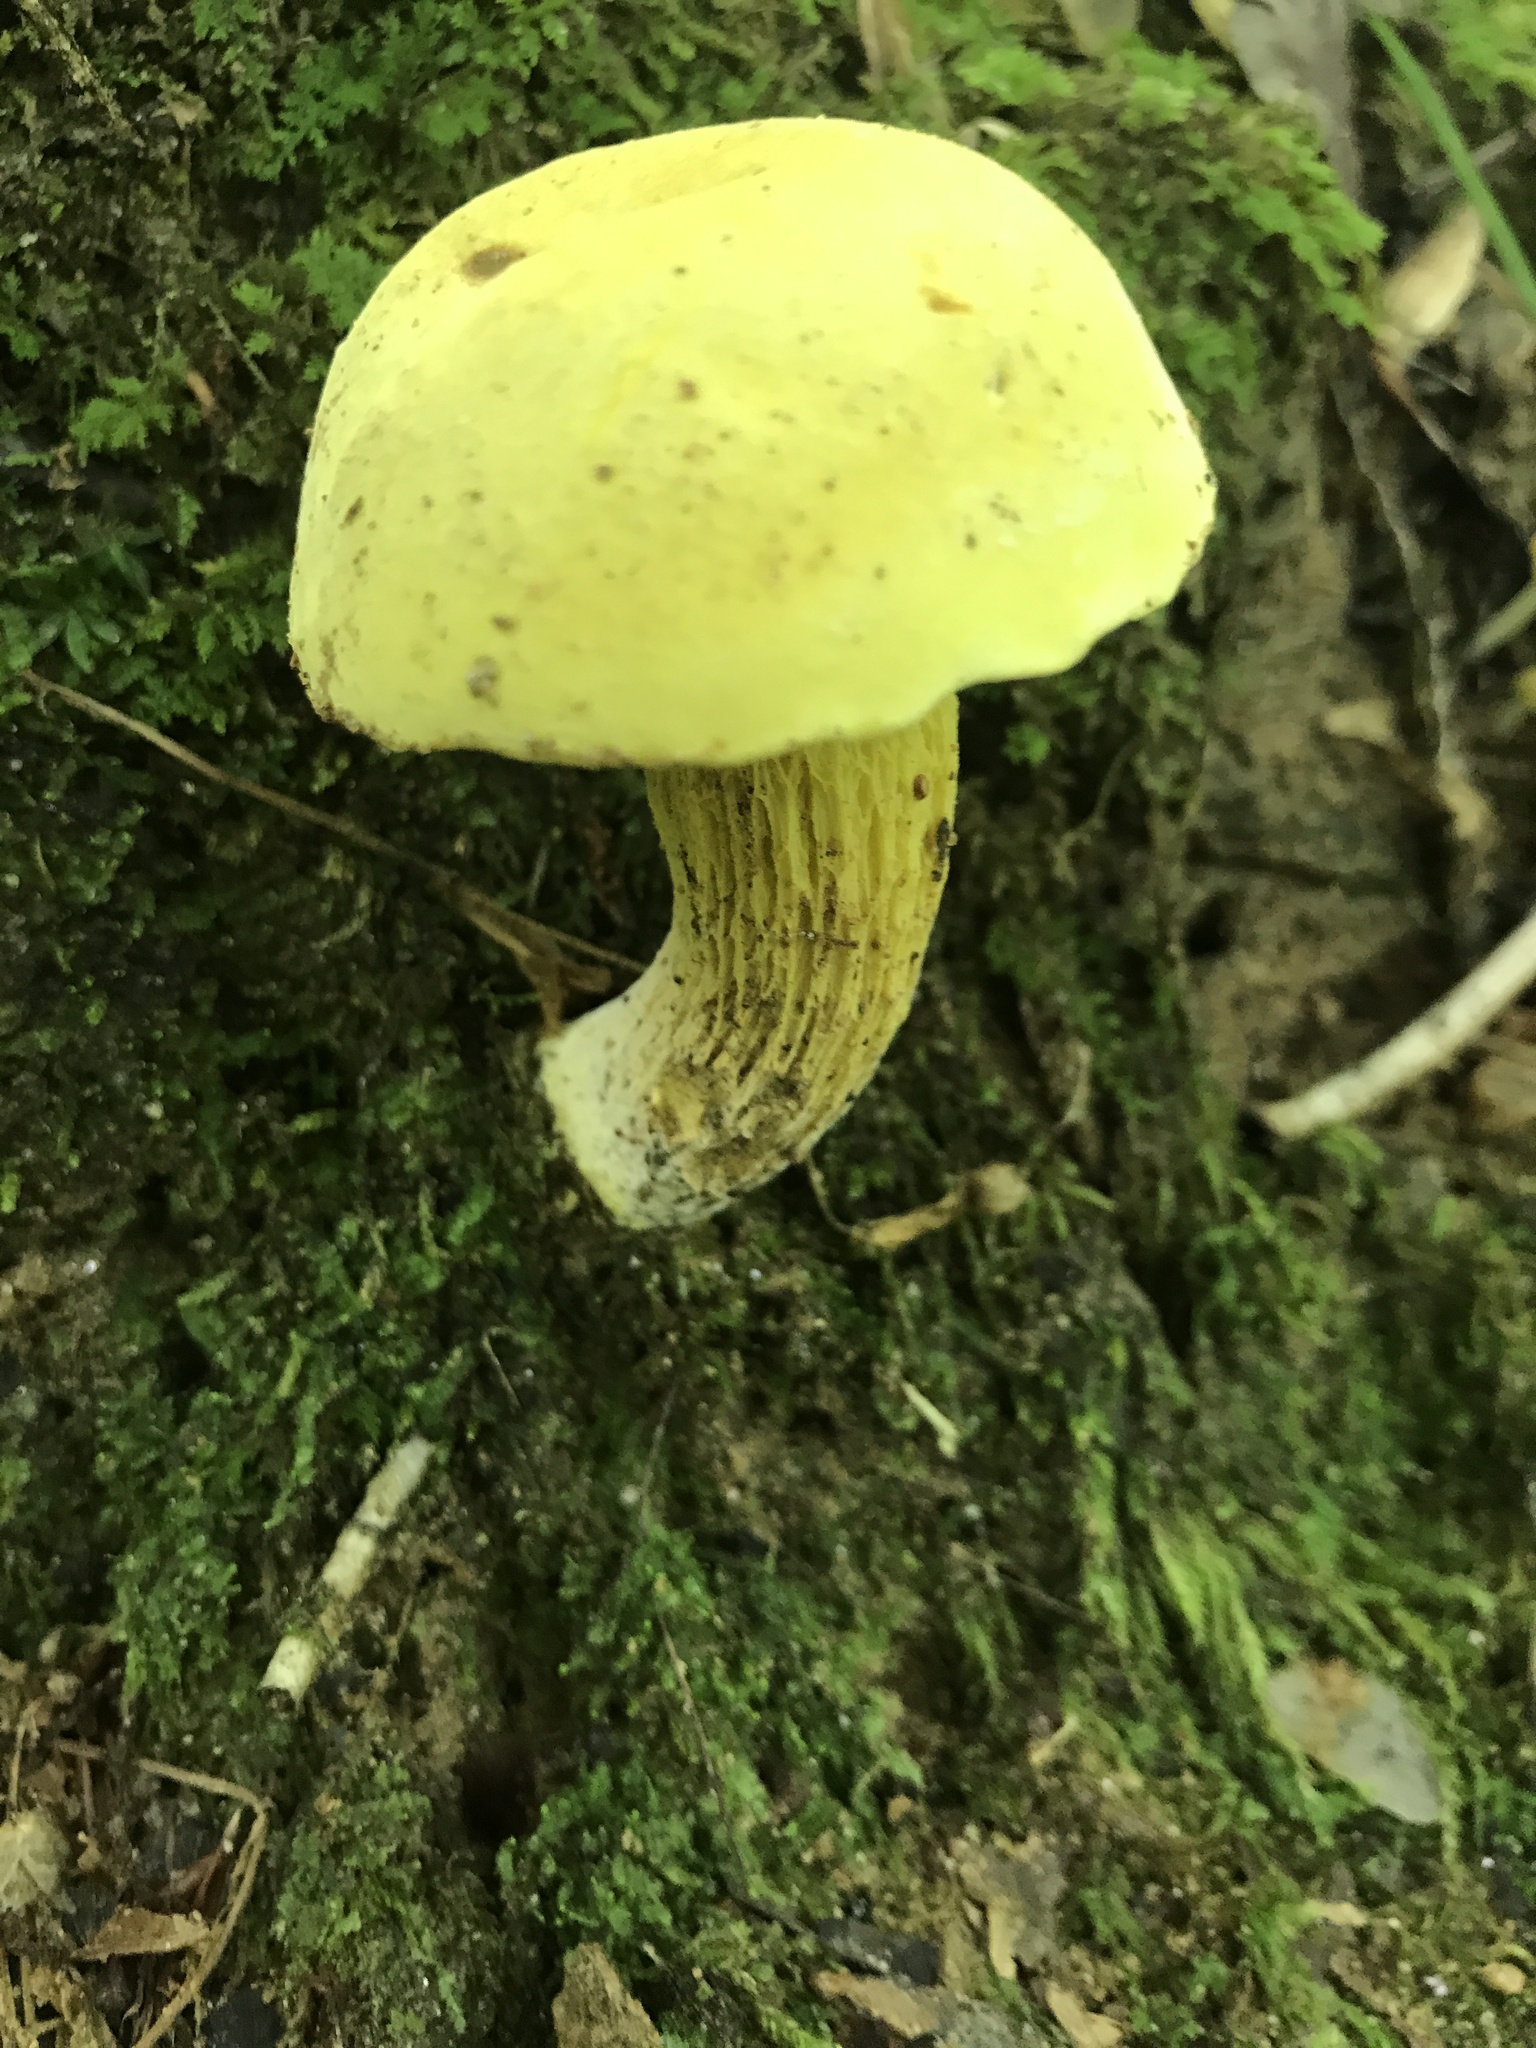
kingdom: Fungi
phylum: Basidiomycota
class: Agaricomycetes
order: Boletales
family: Boletaceae
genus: Retiboletus
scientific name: Retiboletus ornatipes
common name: Ornate-stalked bolete
